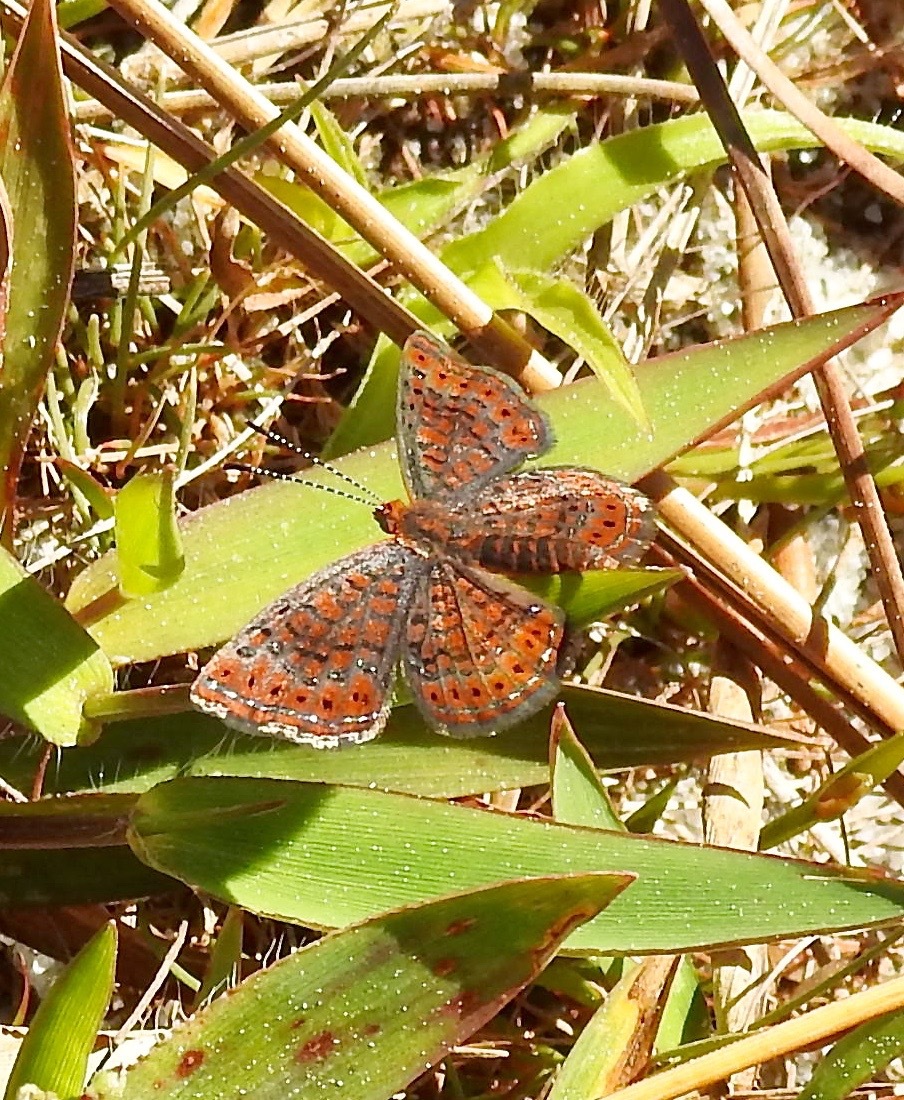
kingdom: Animalia
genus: Calephelis
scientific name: Calephelis virginiensis
